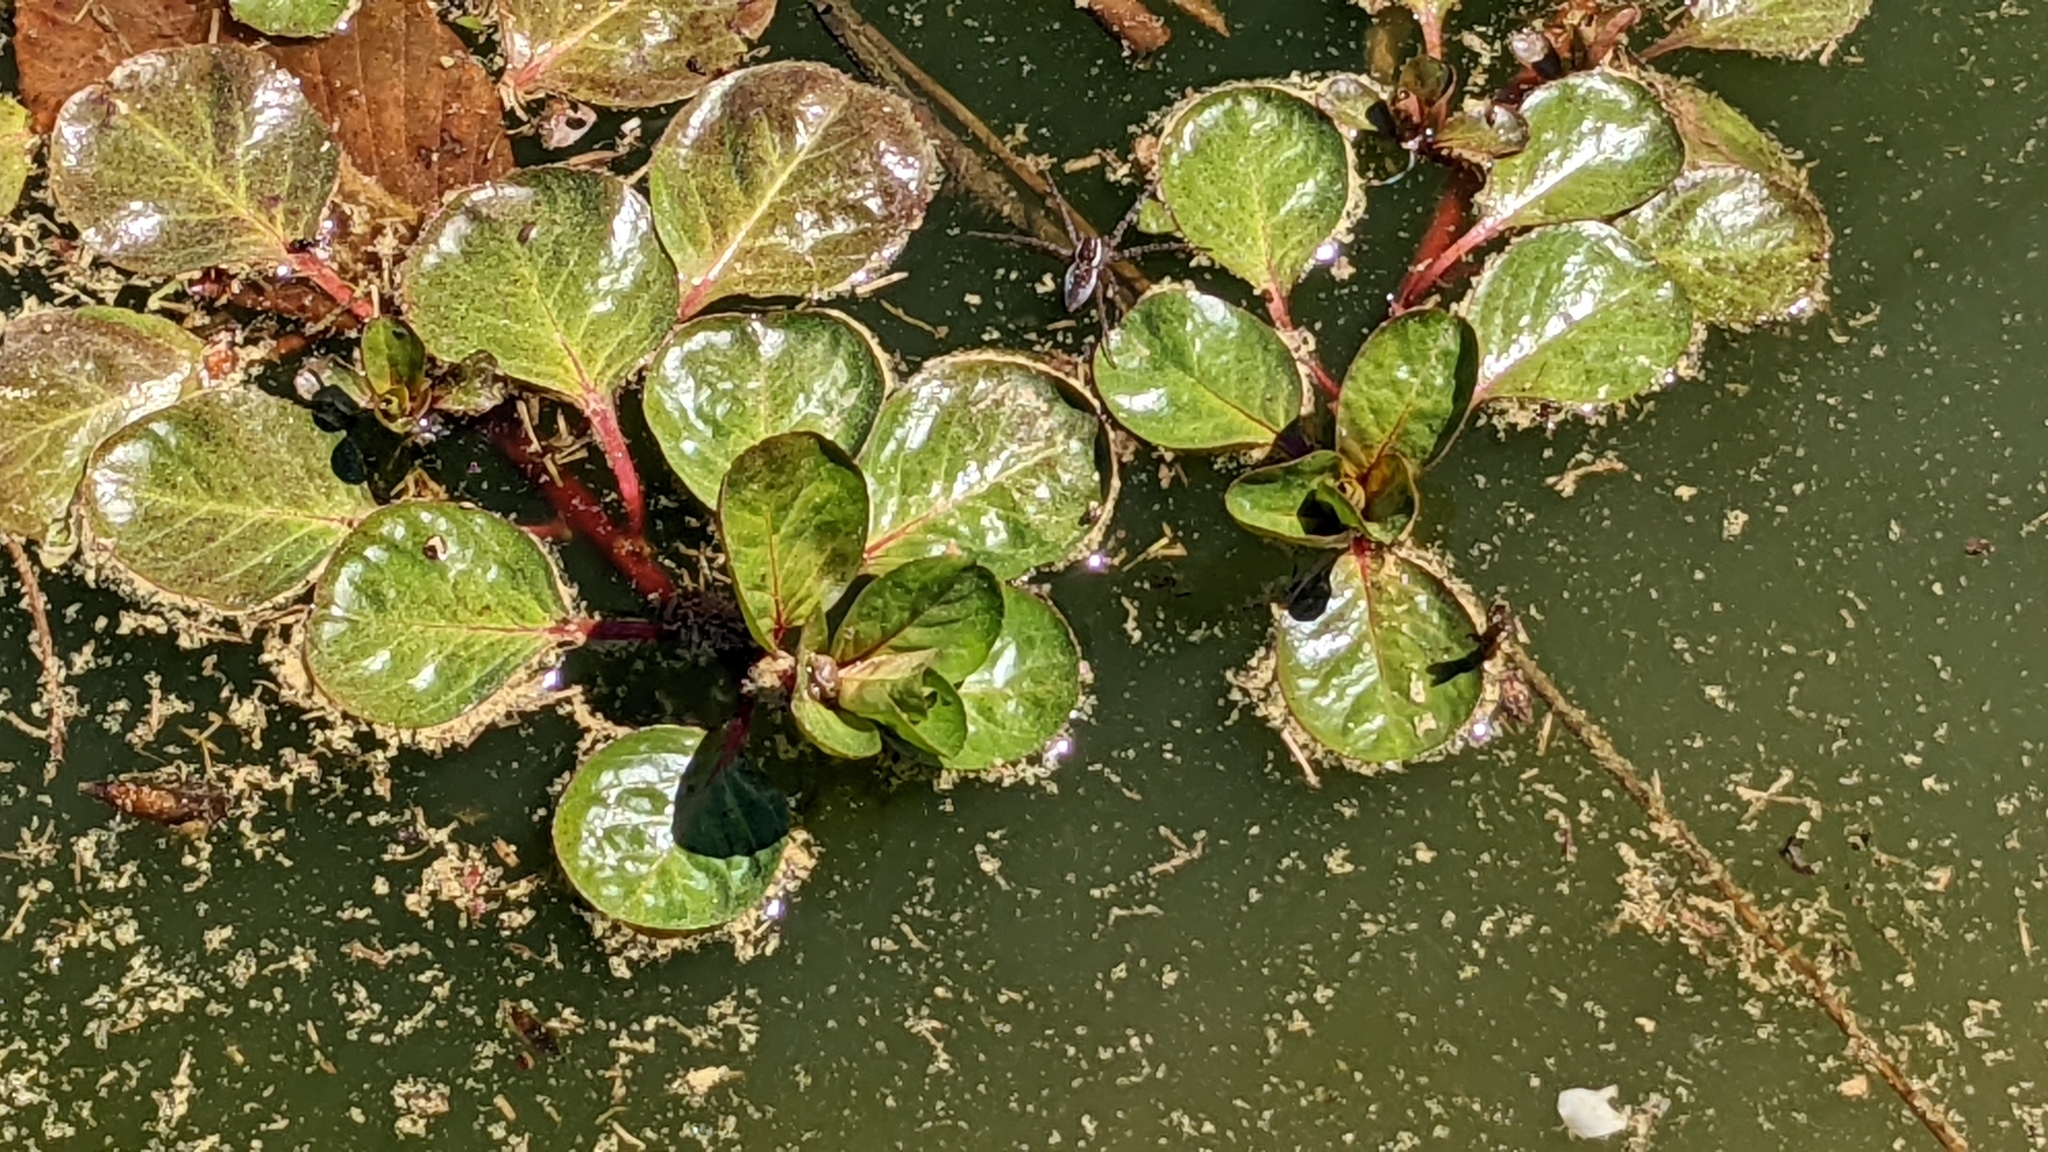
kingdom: Plantae
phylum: Tracheophyta
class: Magnoliopsida
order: Myrtales
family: Onagraceae
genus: Ludwigia
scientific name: Ludwigia peploides
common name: Floating primrose-willow
